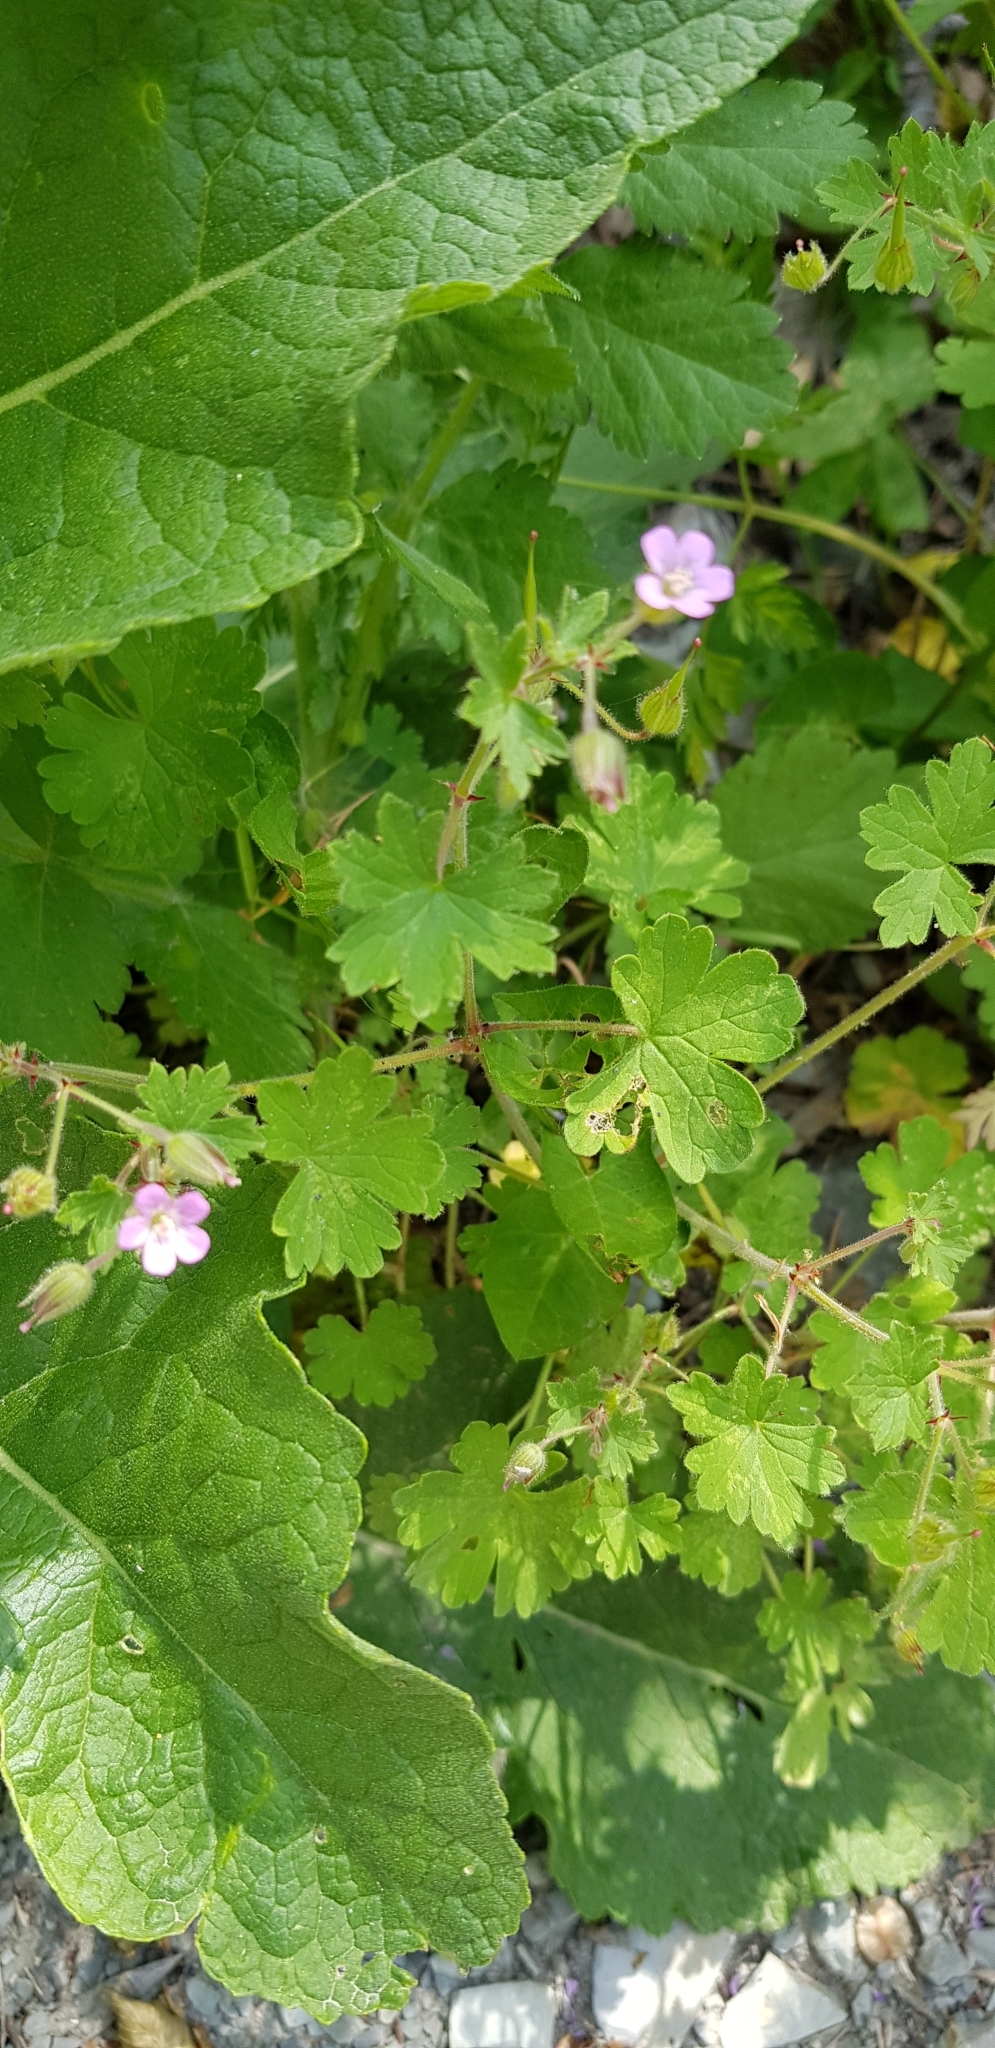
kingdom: Plantae
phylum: Tracheophyta
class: Magnoliopsida
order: Geraniales
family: Geraniaceae
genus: Geranium
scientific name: Geranium rotundifolium
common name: Round-leaved crane's-bill
